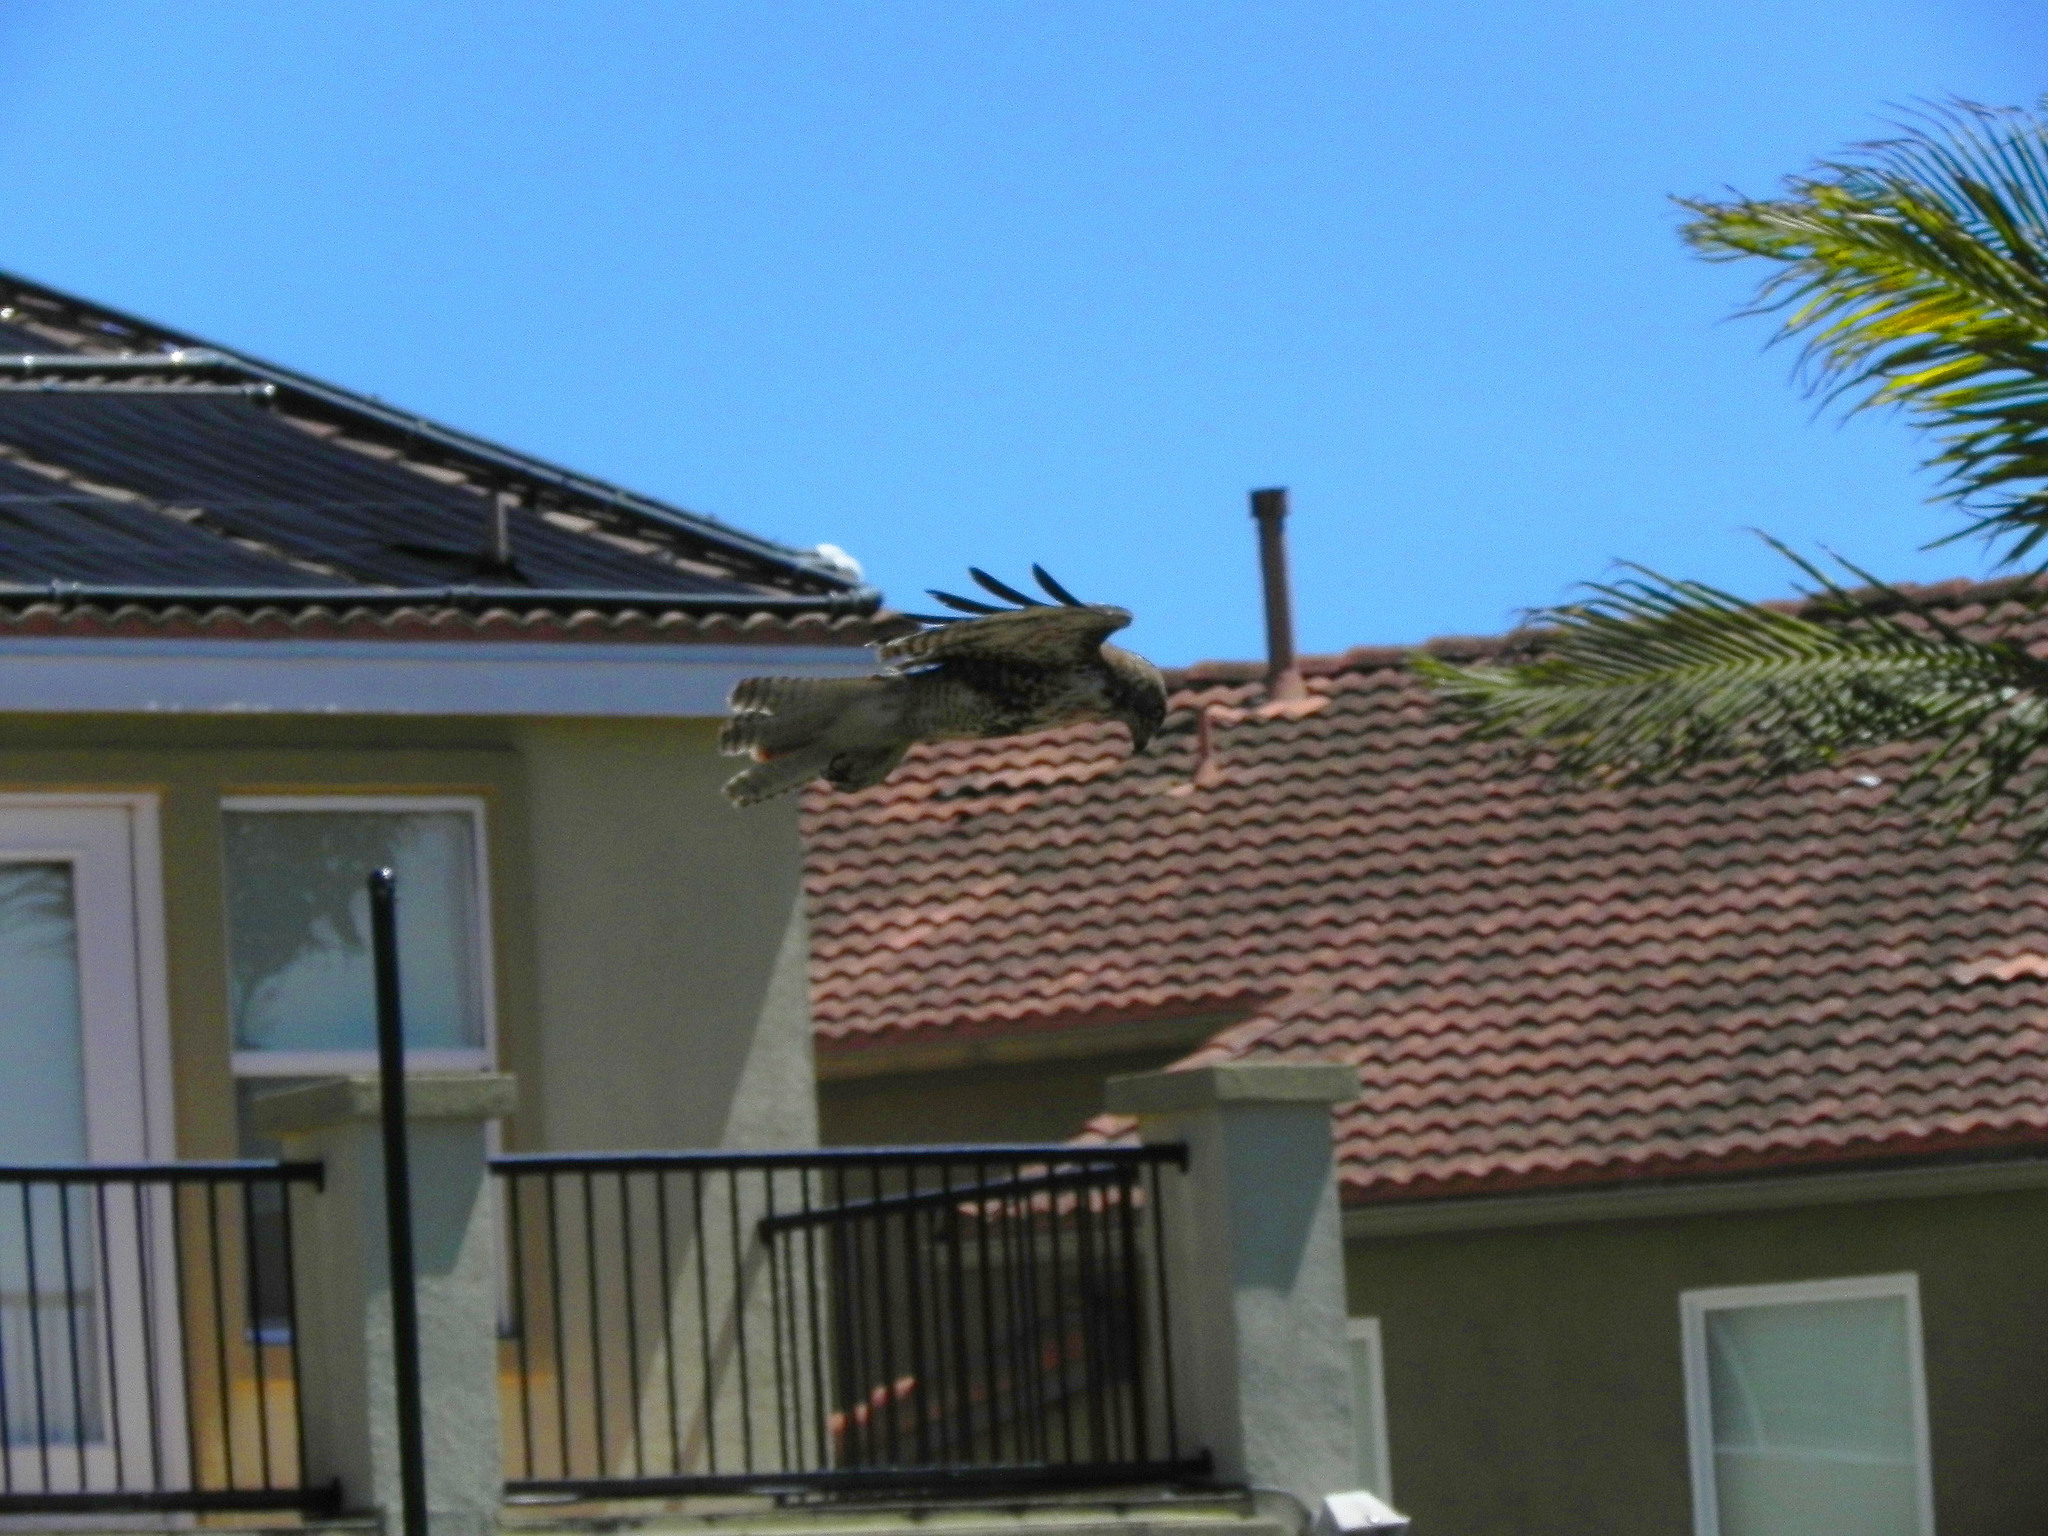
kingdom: Animalia
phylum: Chordata
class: Aves
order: Accipitriformes
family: Accipitridae
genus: Buteo
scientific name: Buteo jamaicensis
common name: Red-tailed hawk
